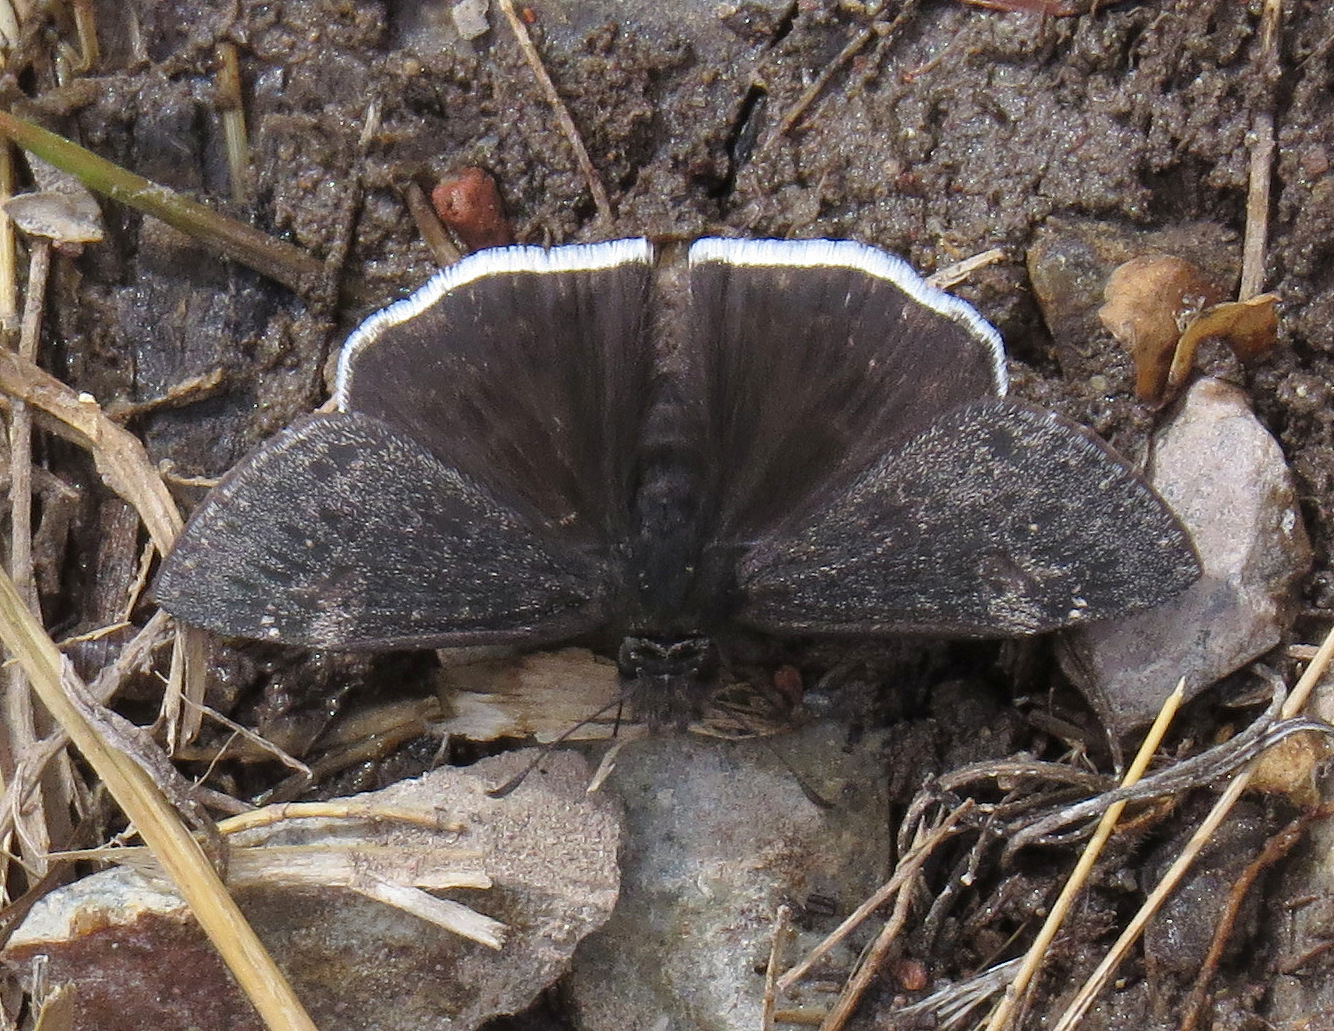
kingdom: Animalia
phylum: Arthropoda
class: Insecta
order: Lepidoptera
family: Hesperiidae
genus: Erynnis
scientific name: Erynnis funeralis
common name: Funereal duskywing
